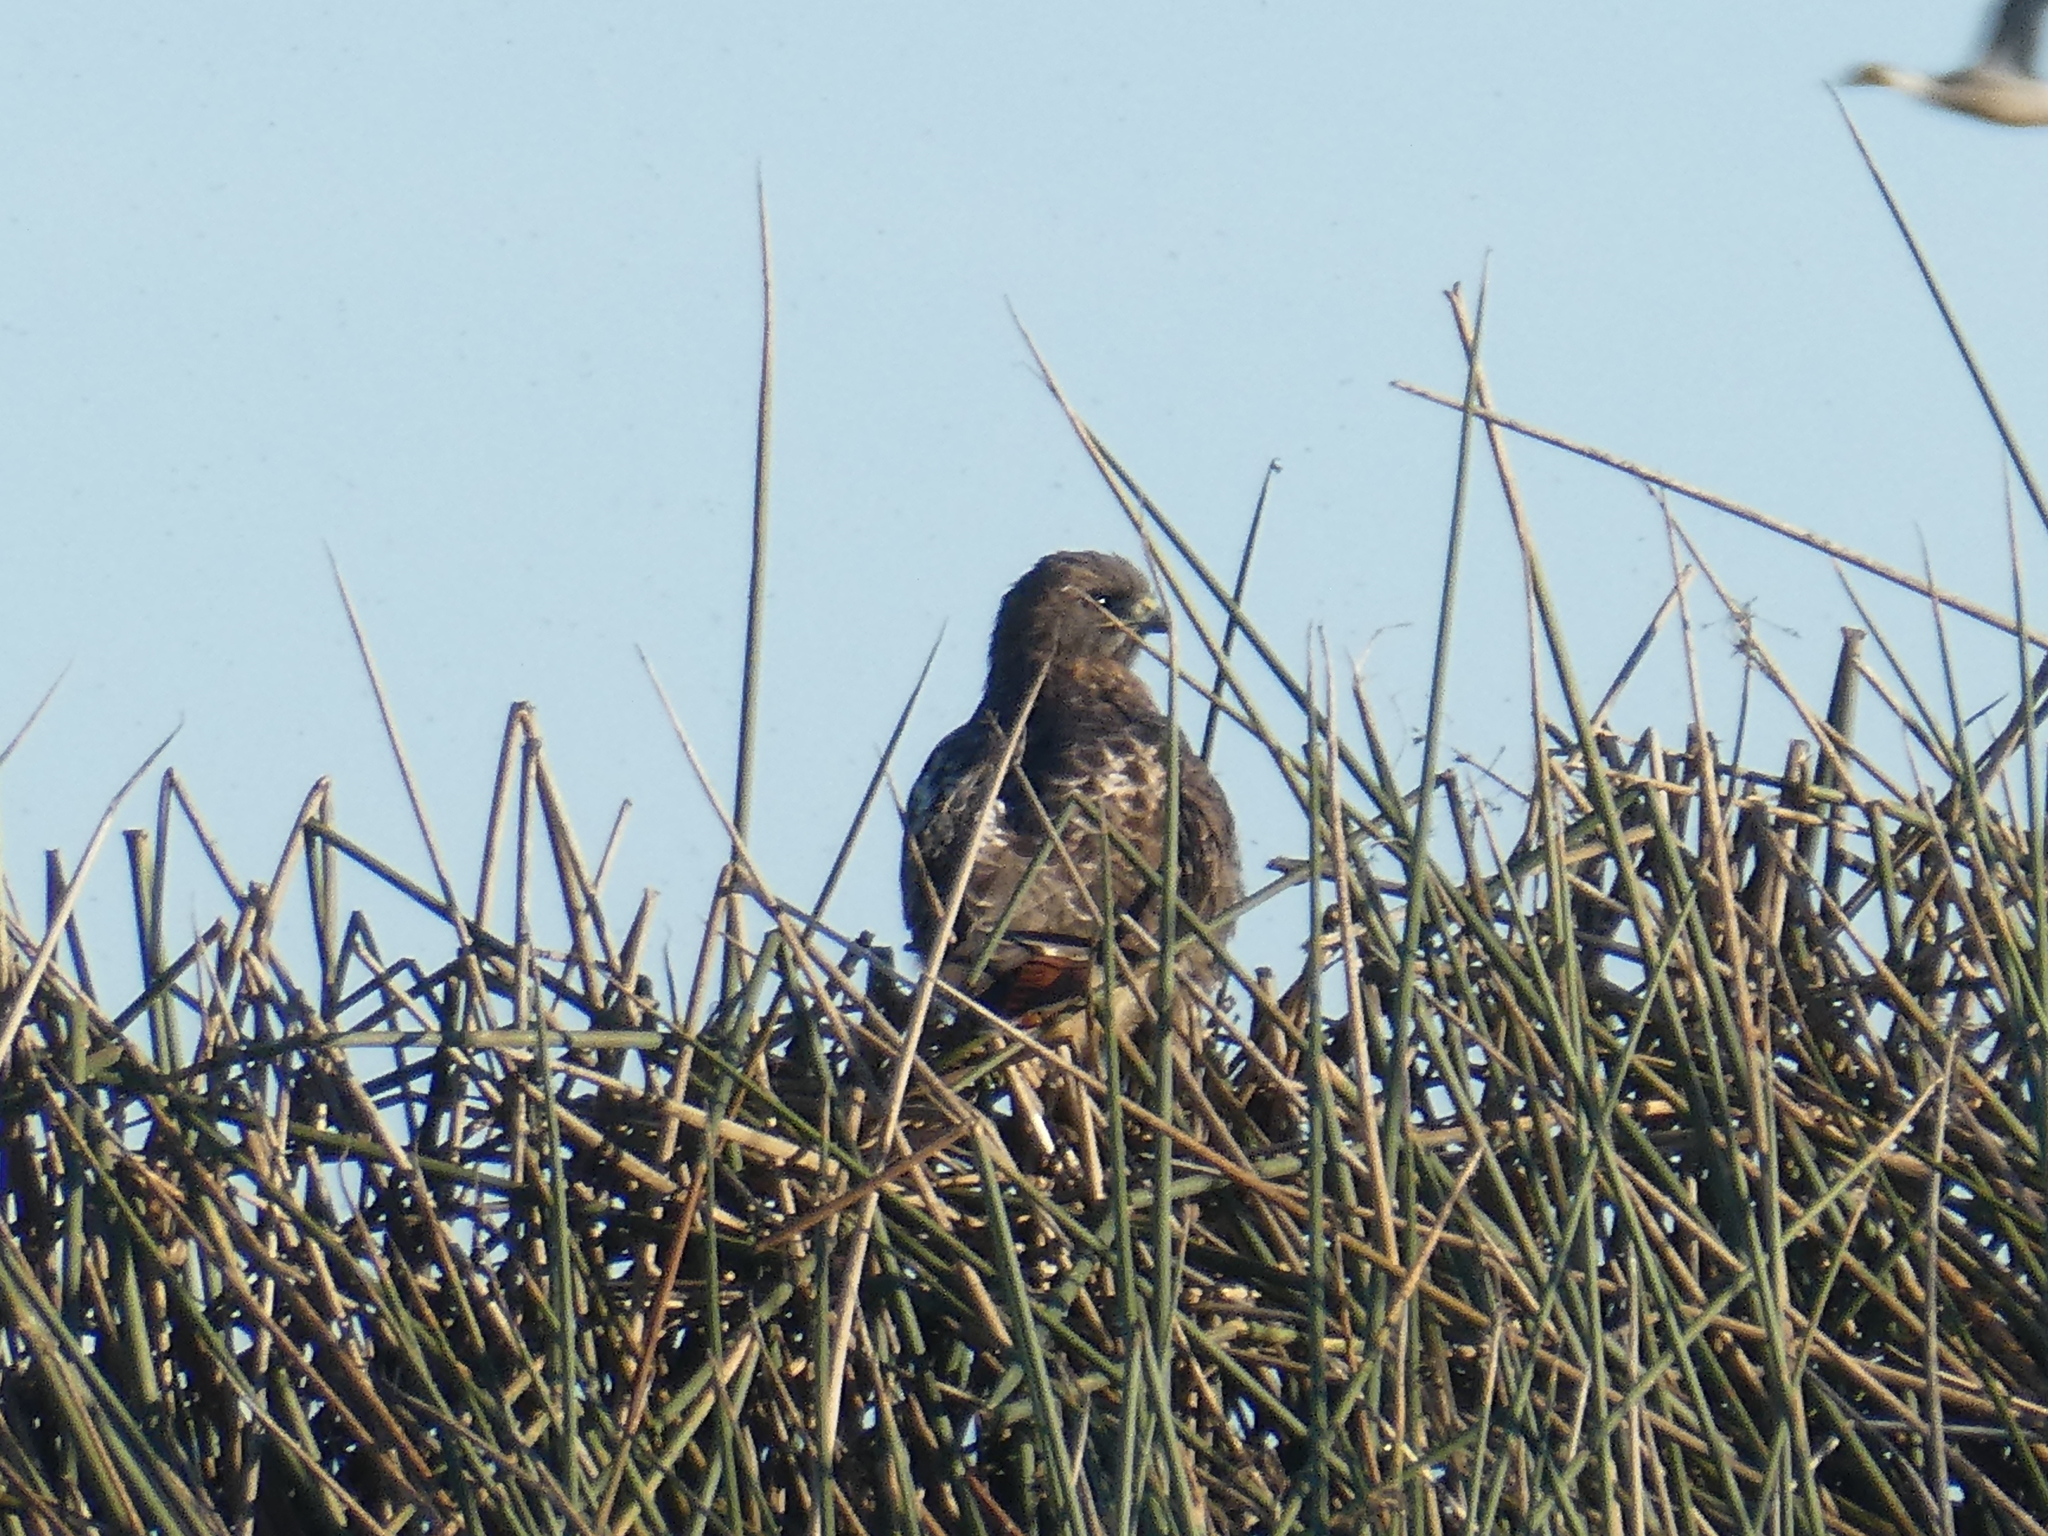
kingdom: Animalia
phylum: Chordata
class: Aves
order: Accipitriformes
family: Accipitridae
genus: Buteo
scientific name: Buteo jamaicensis
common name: Red-tailed hawk
